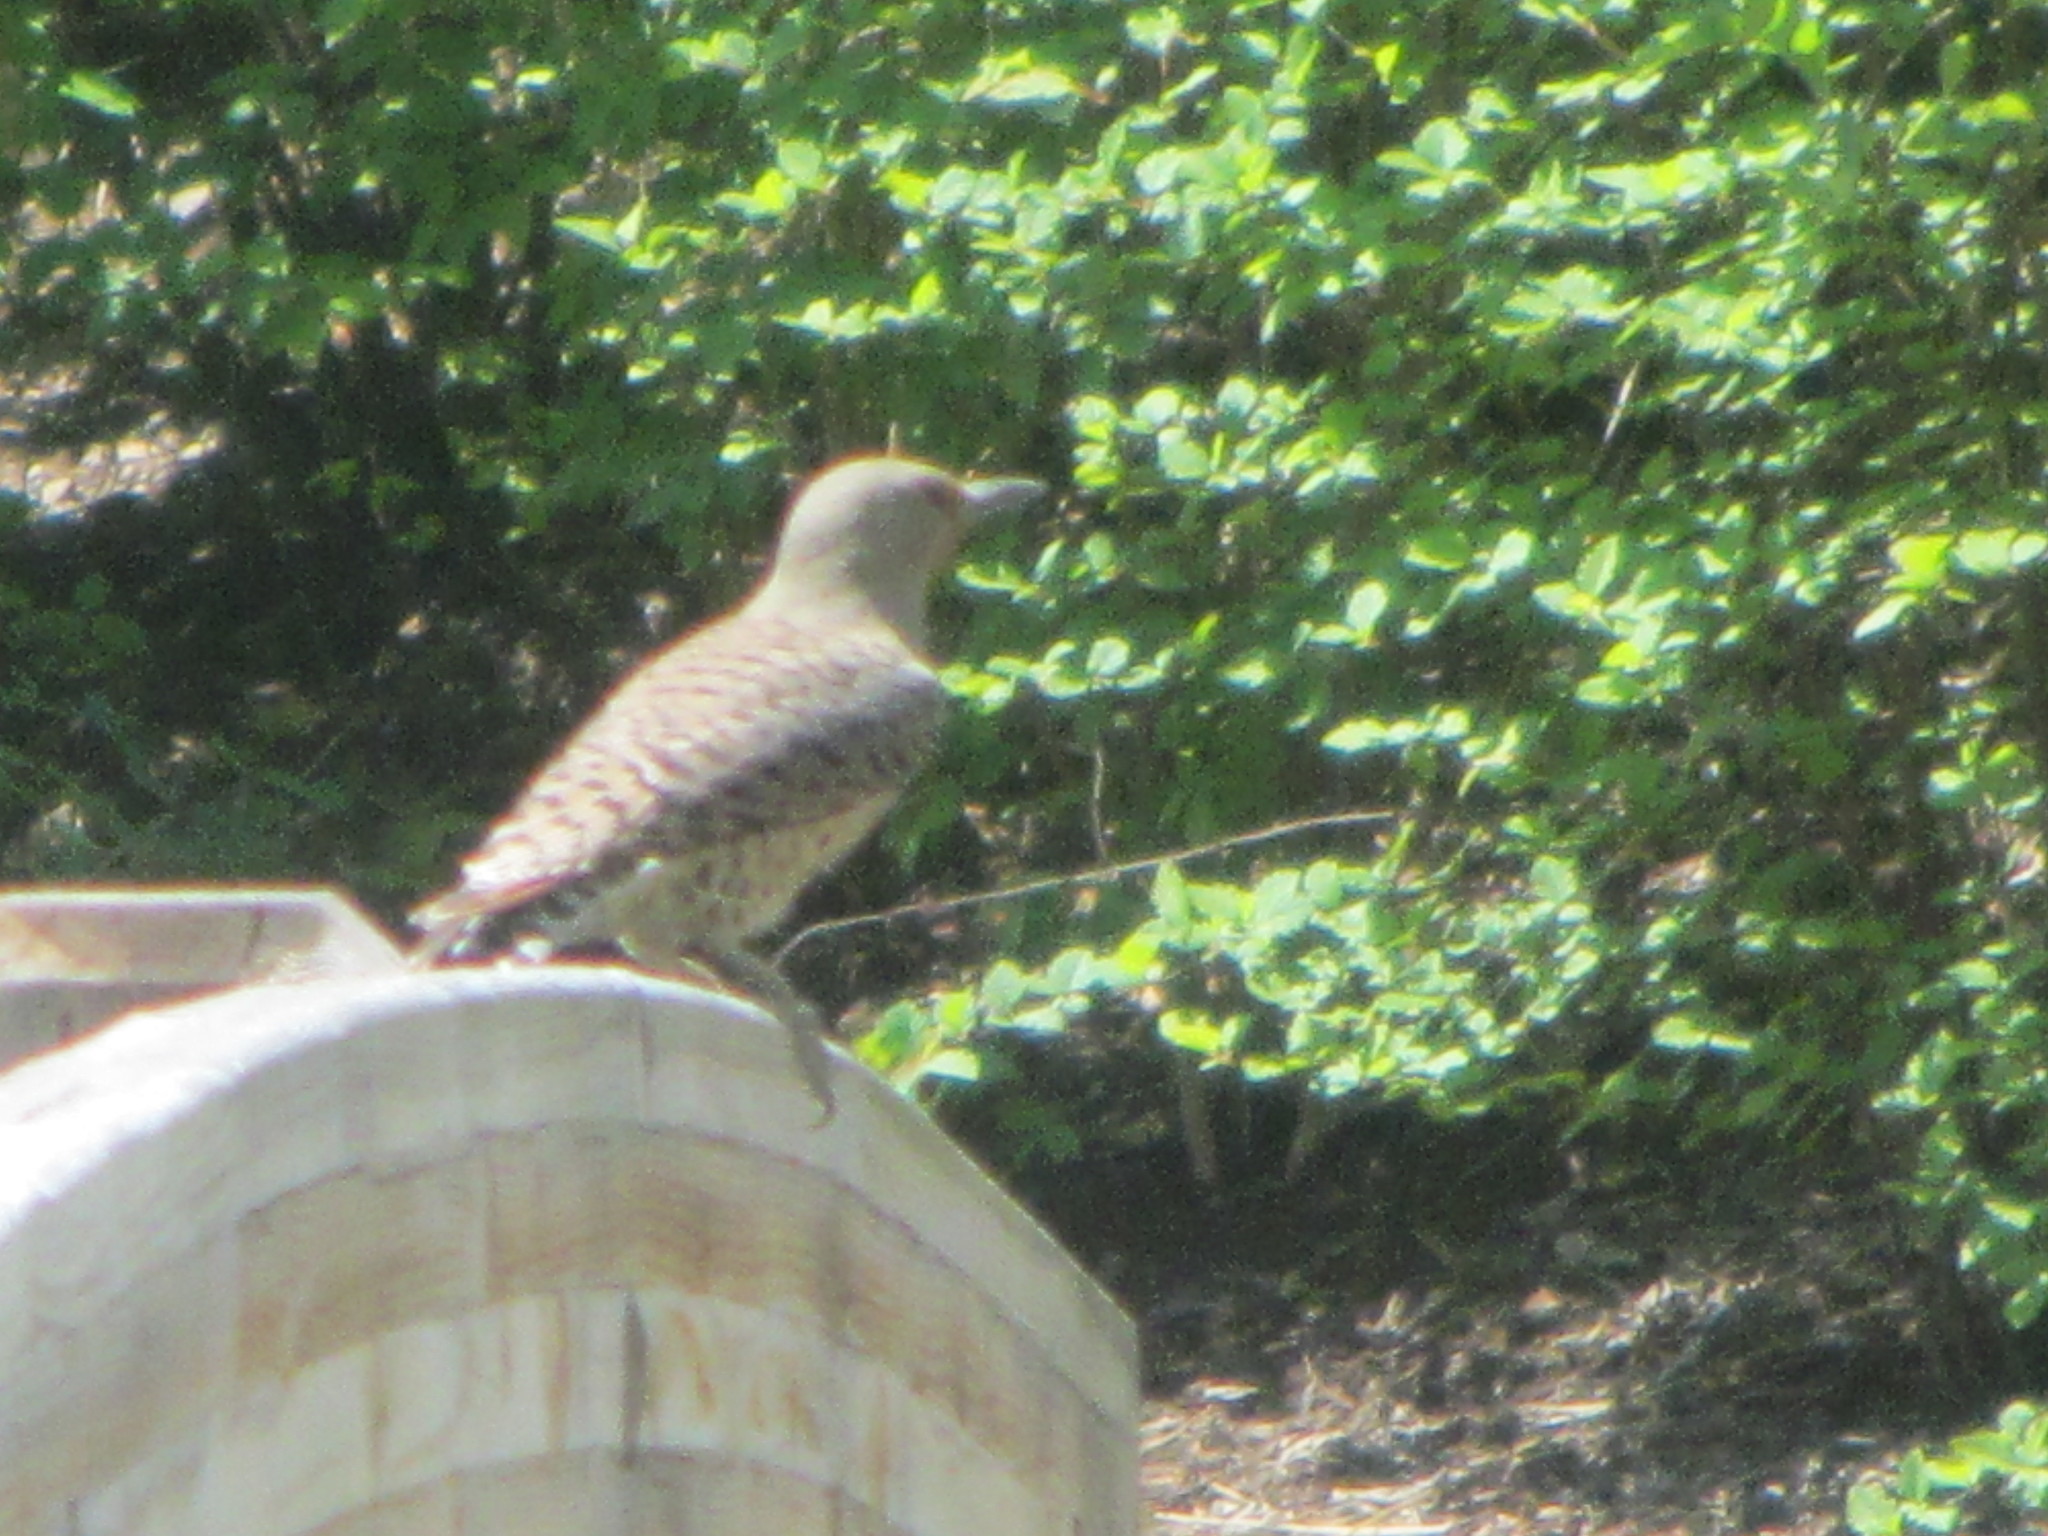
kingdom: Animalia
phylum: Chordata
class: Aves
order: Piciformes
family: Picidae
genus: Colaptes
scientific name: Colaptes auratus
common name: Northern flicker
